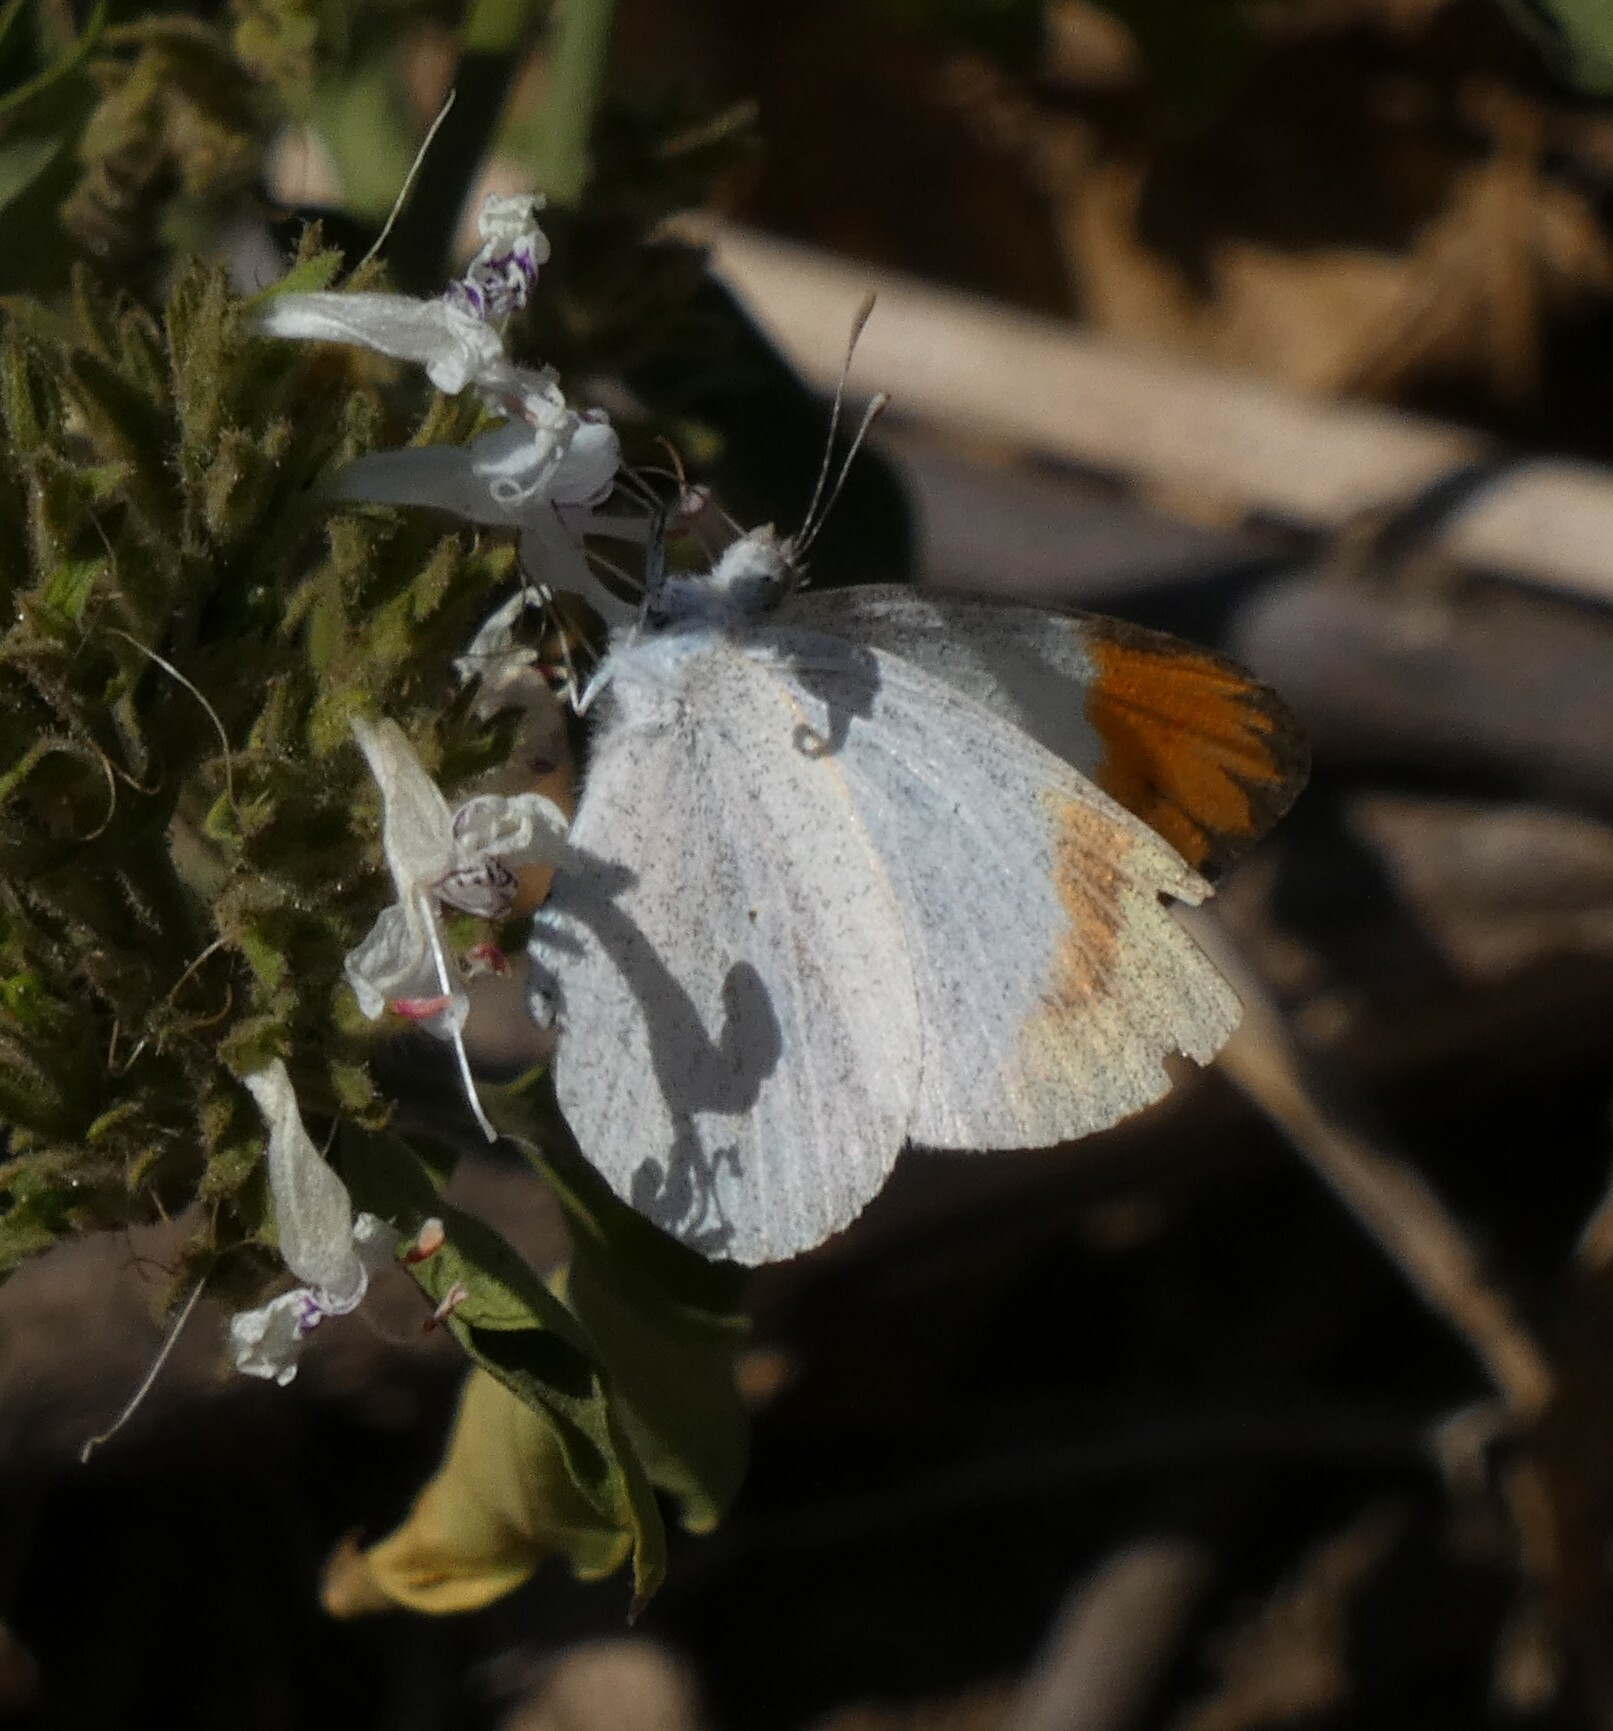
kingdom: Animalia
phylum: Arthropoda
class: Insecta
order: Lepidoptera
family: Pieridae
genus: Colotis
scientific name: Colotis evagore
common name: Desert orange-tip
